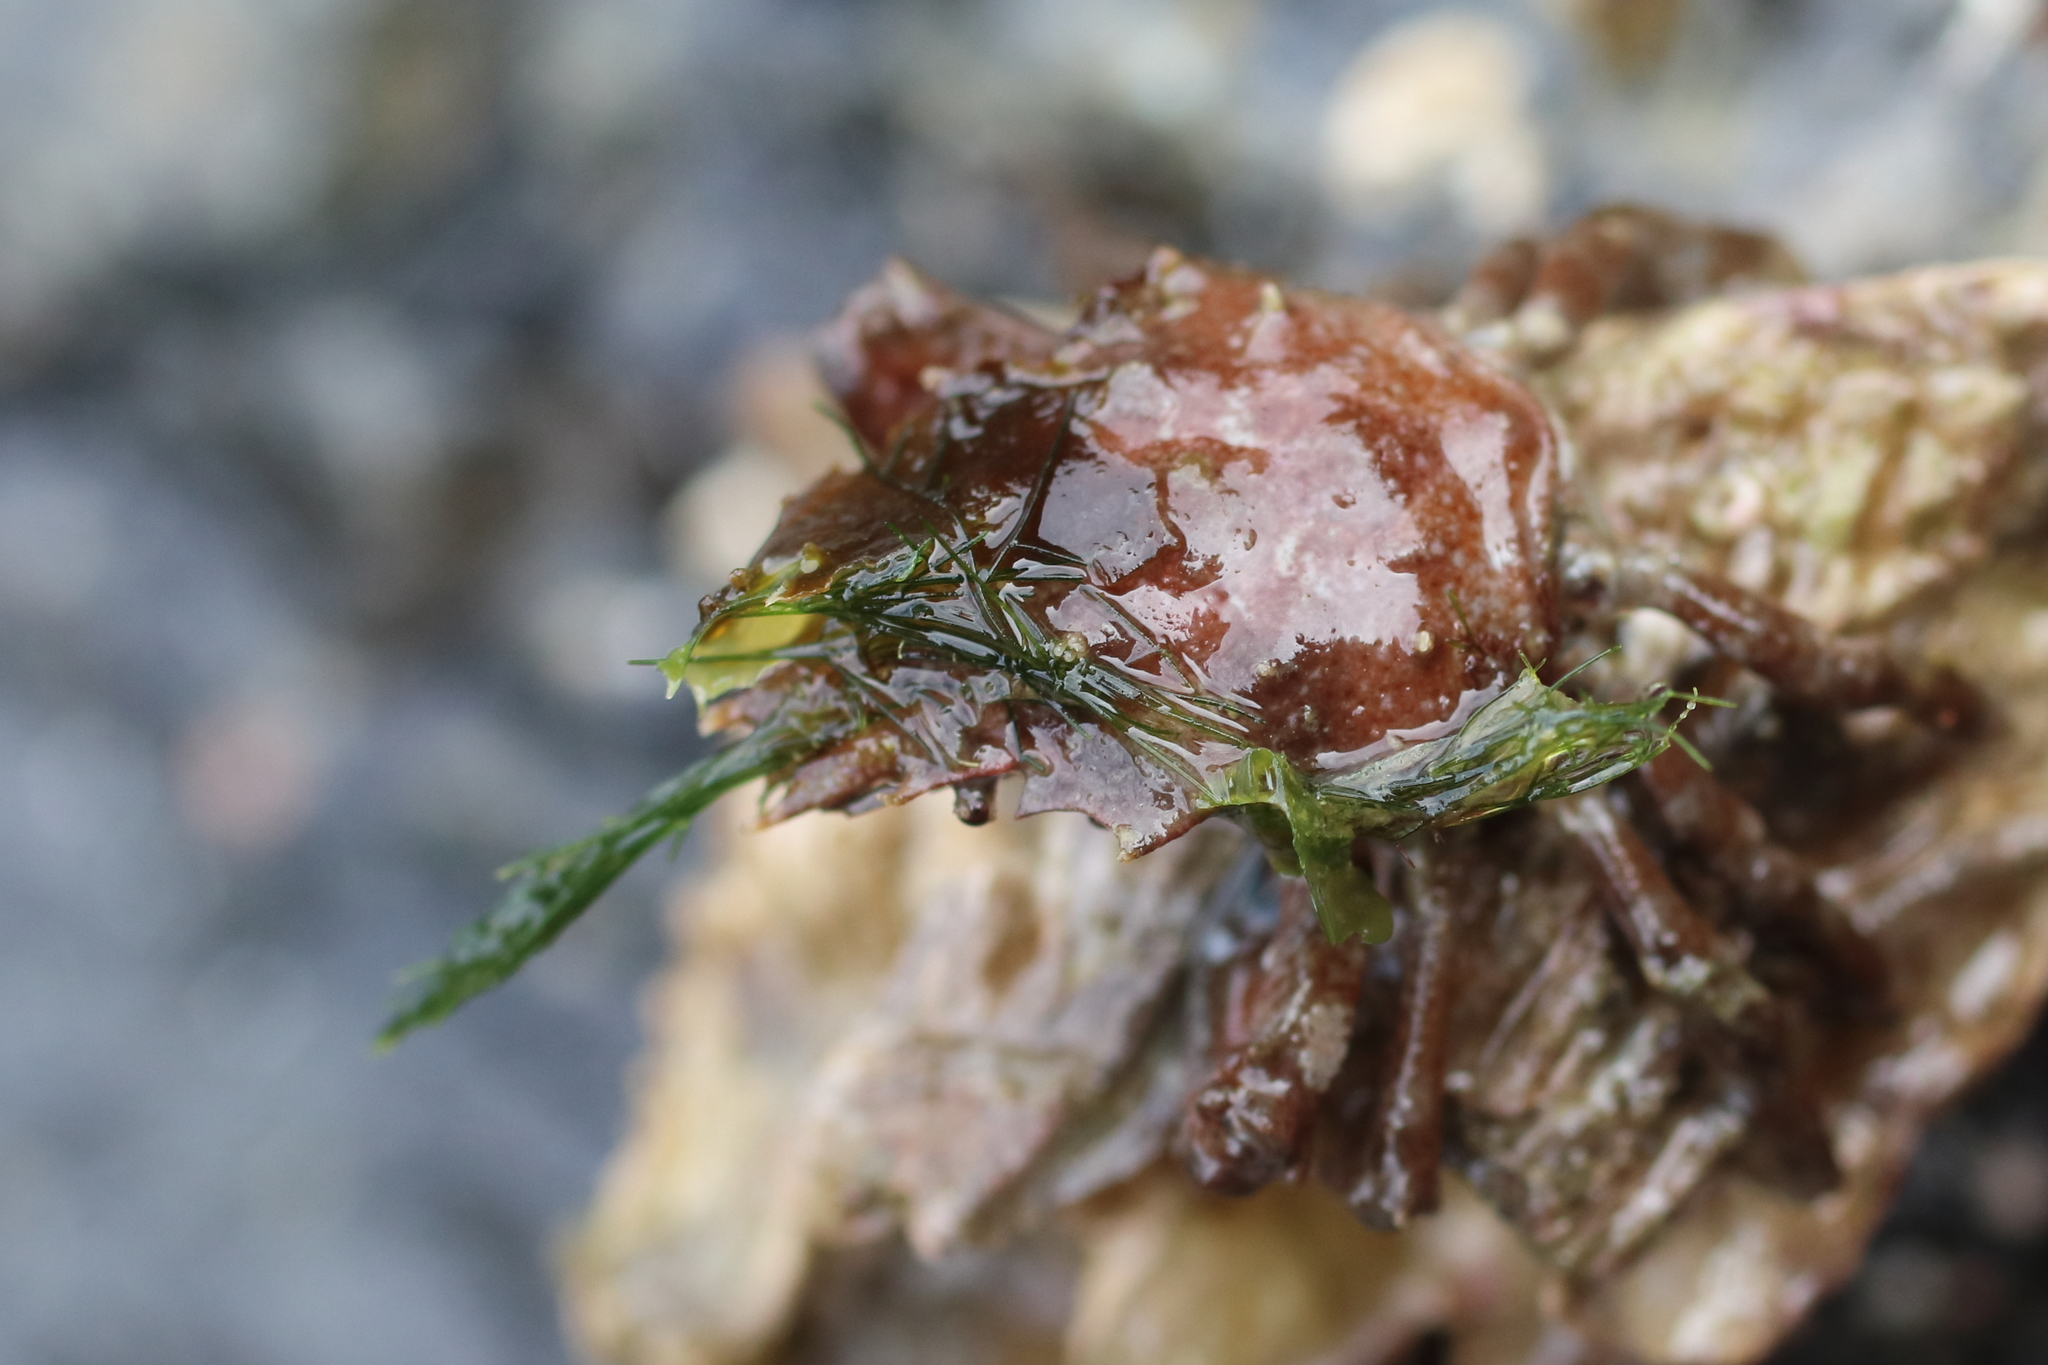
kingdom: Animalia
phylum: Arthropoda
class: Malacostraca
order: Decapoda
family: Epialtidae
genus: Pugettia
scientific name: Pugettia gracilis
